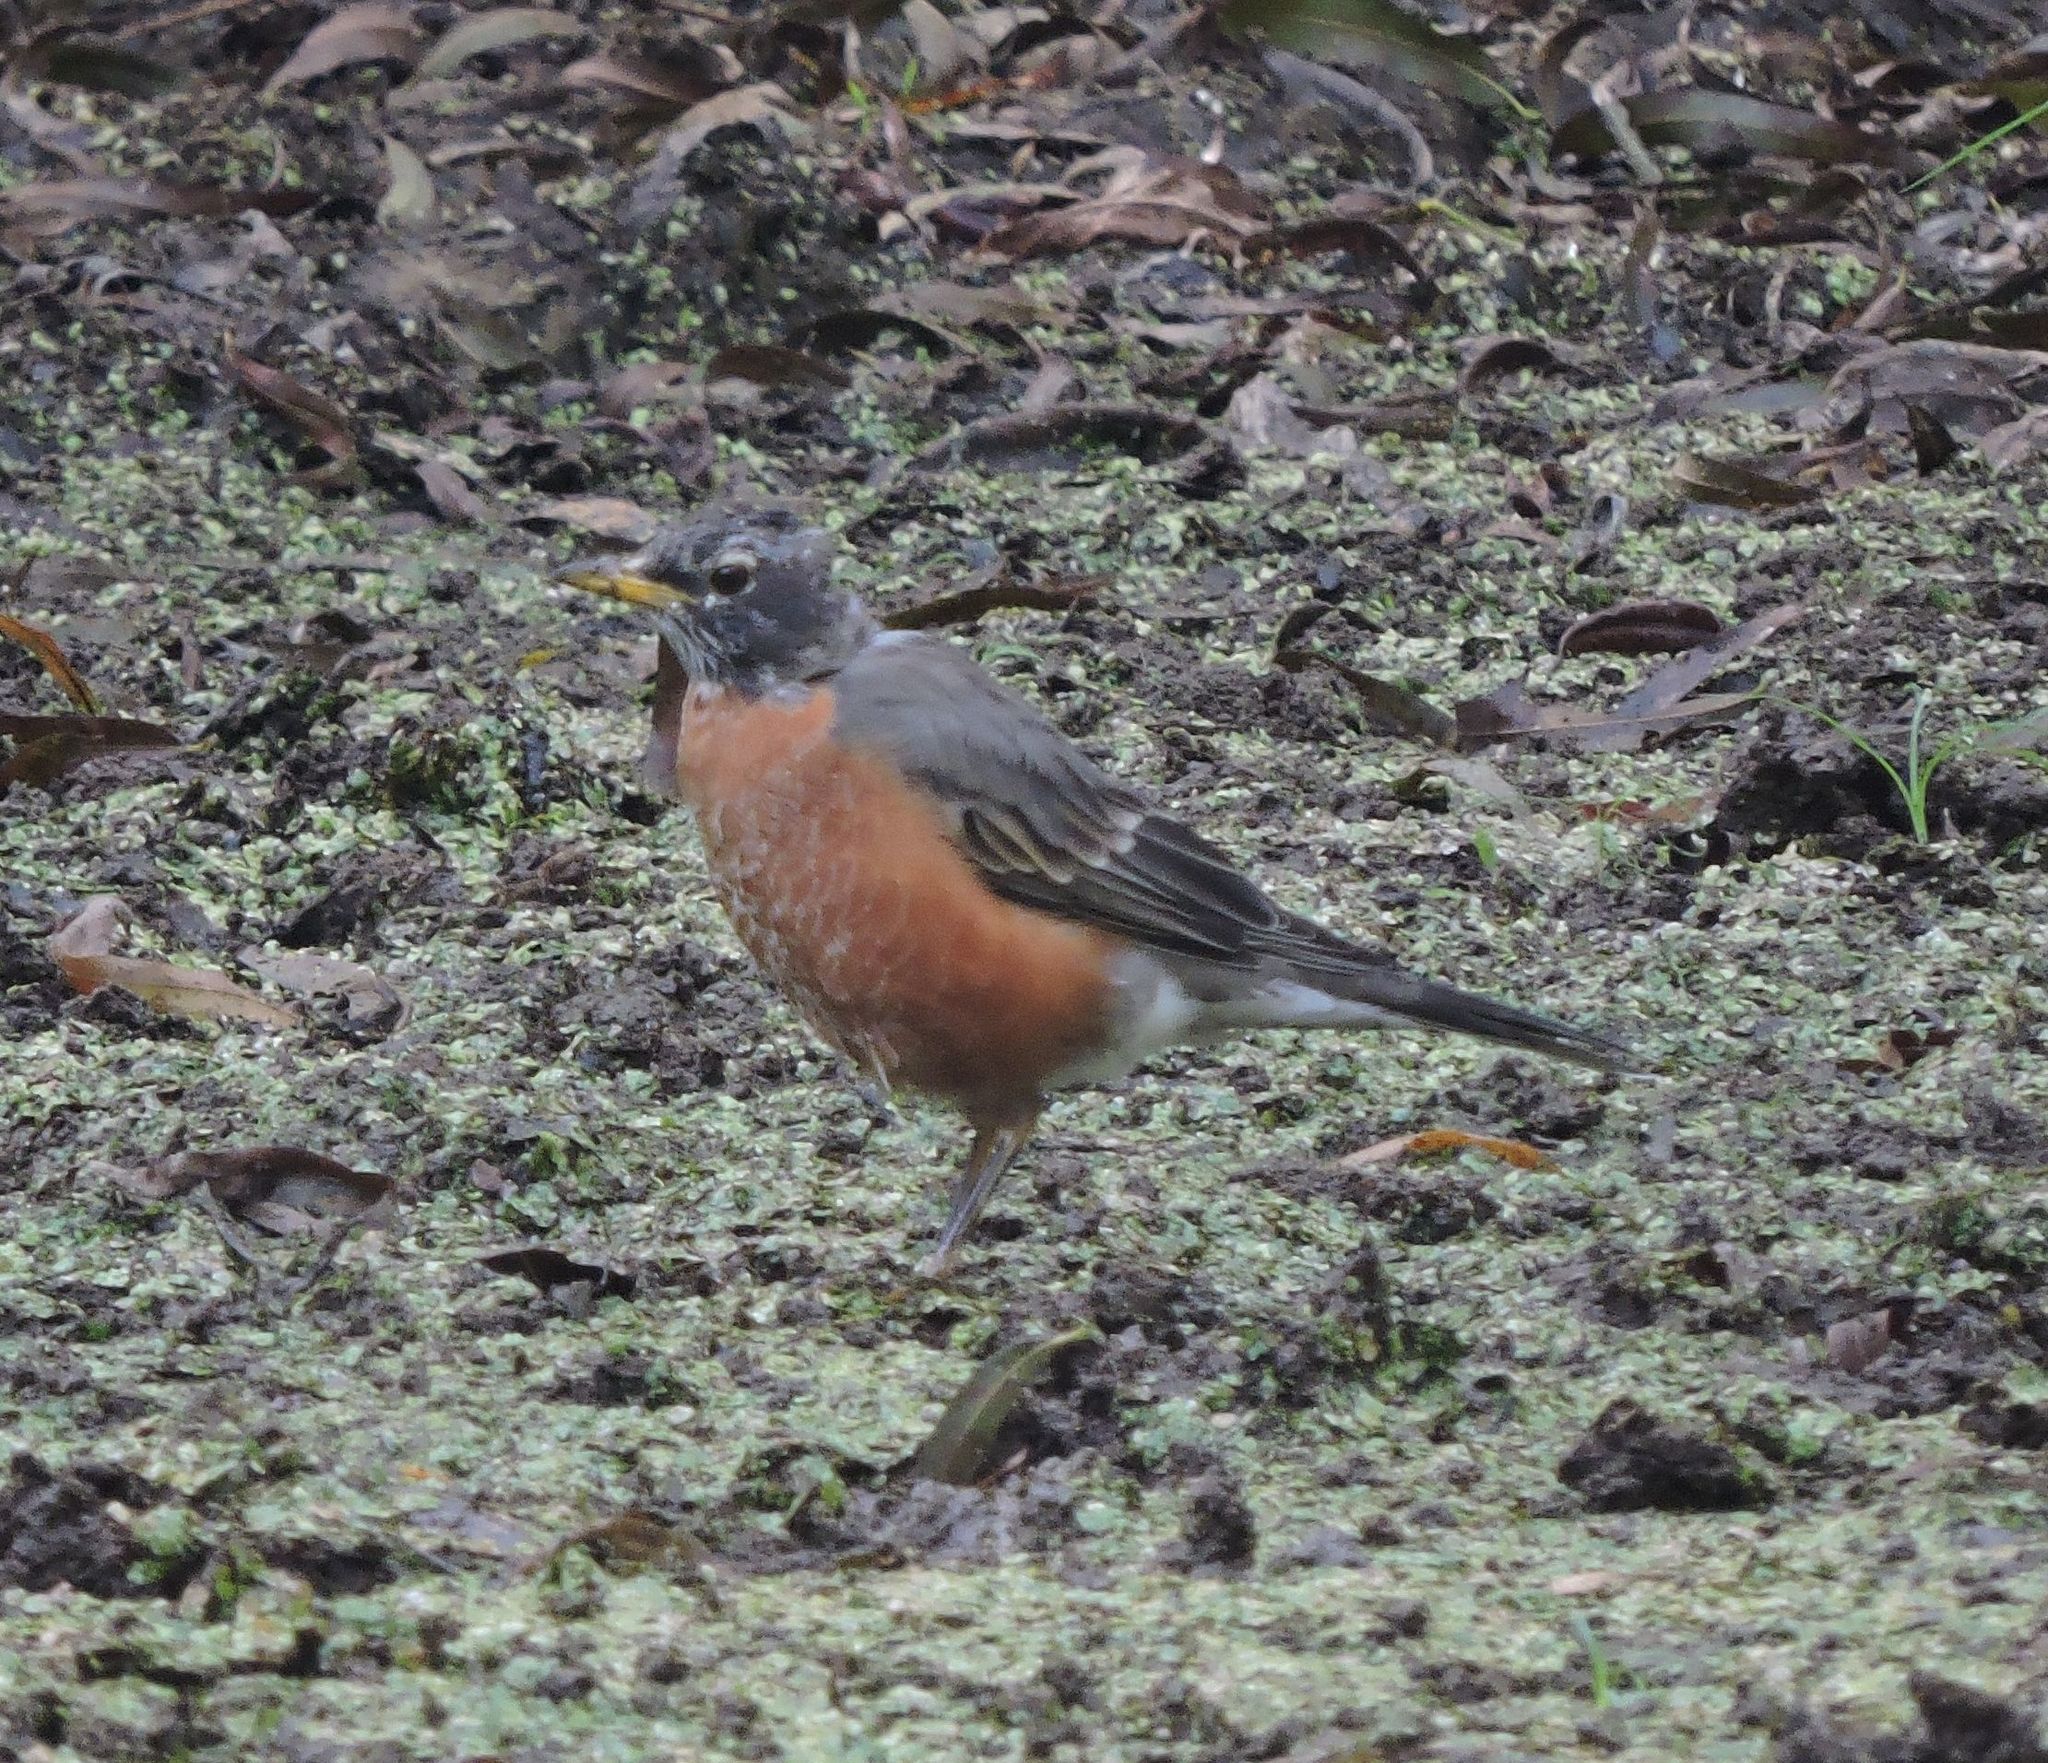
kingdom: Animalia
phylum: Chordata
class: Aves
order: Passeriformes
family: Turdidae
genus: Turdus
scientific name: Turdus migratorius
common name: American robin
